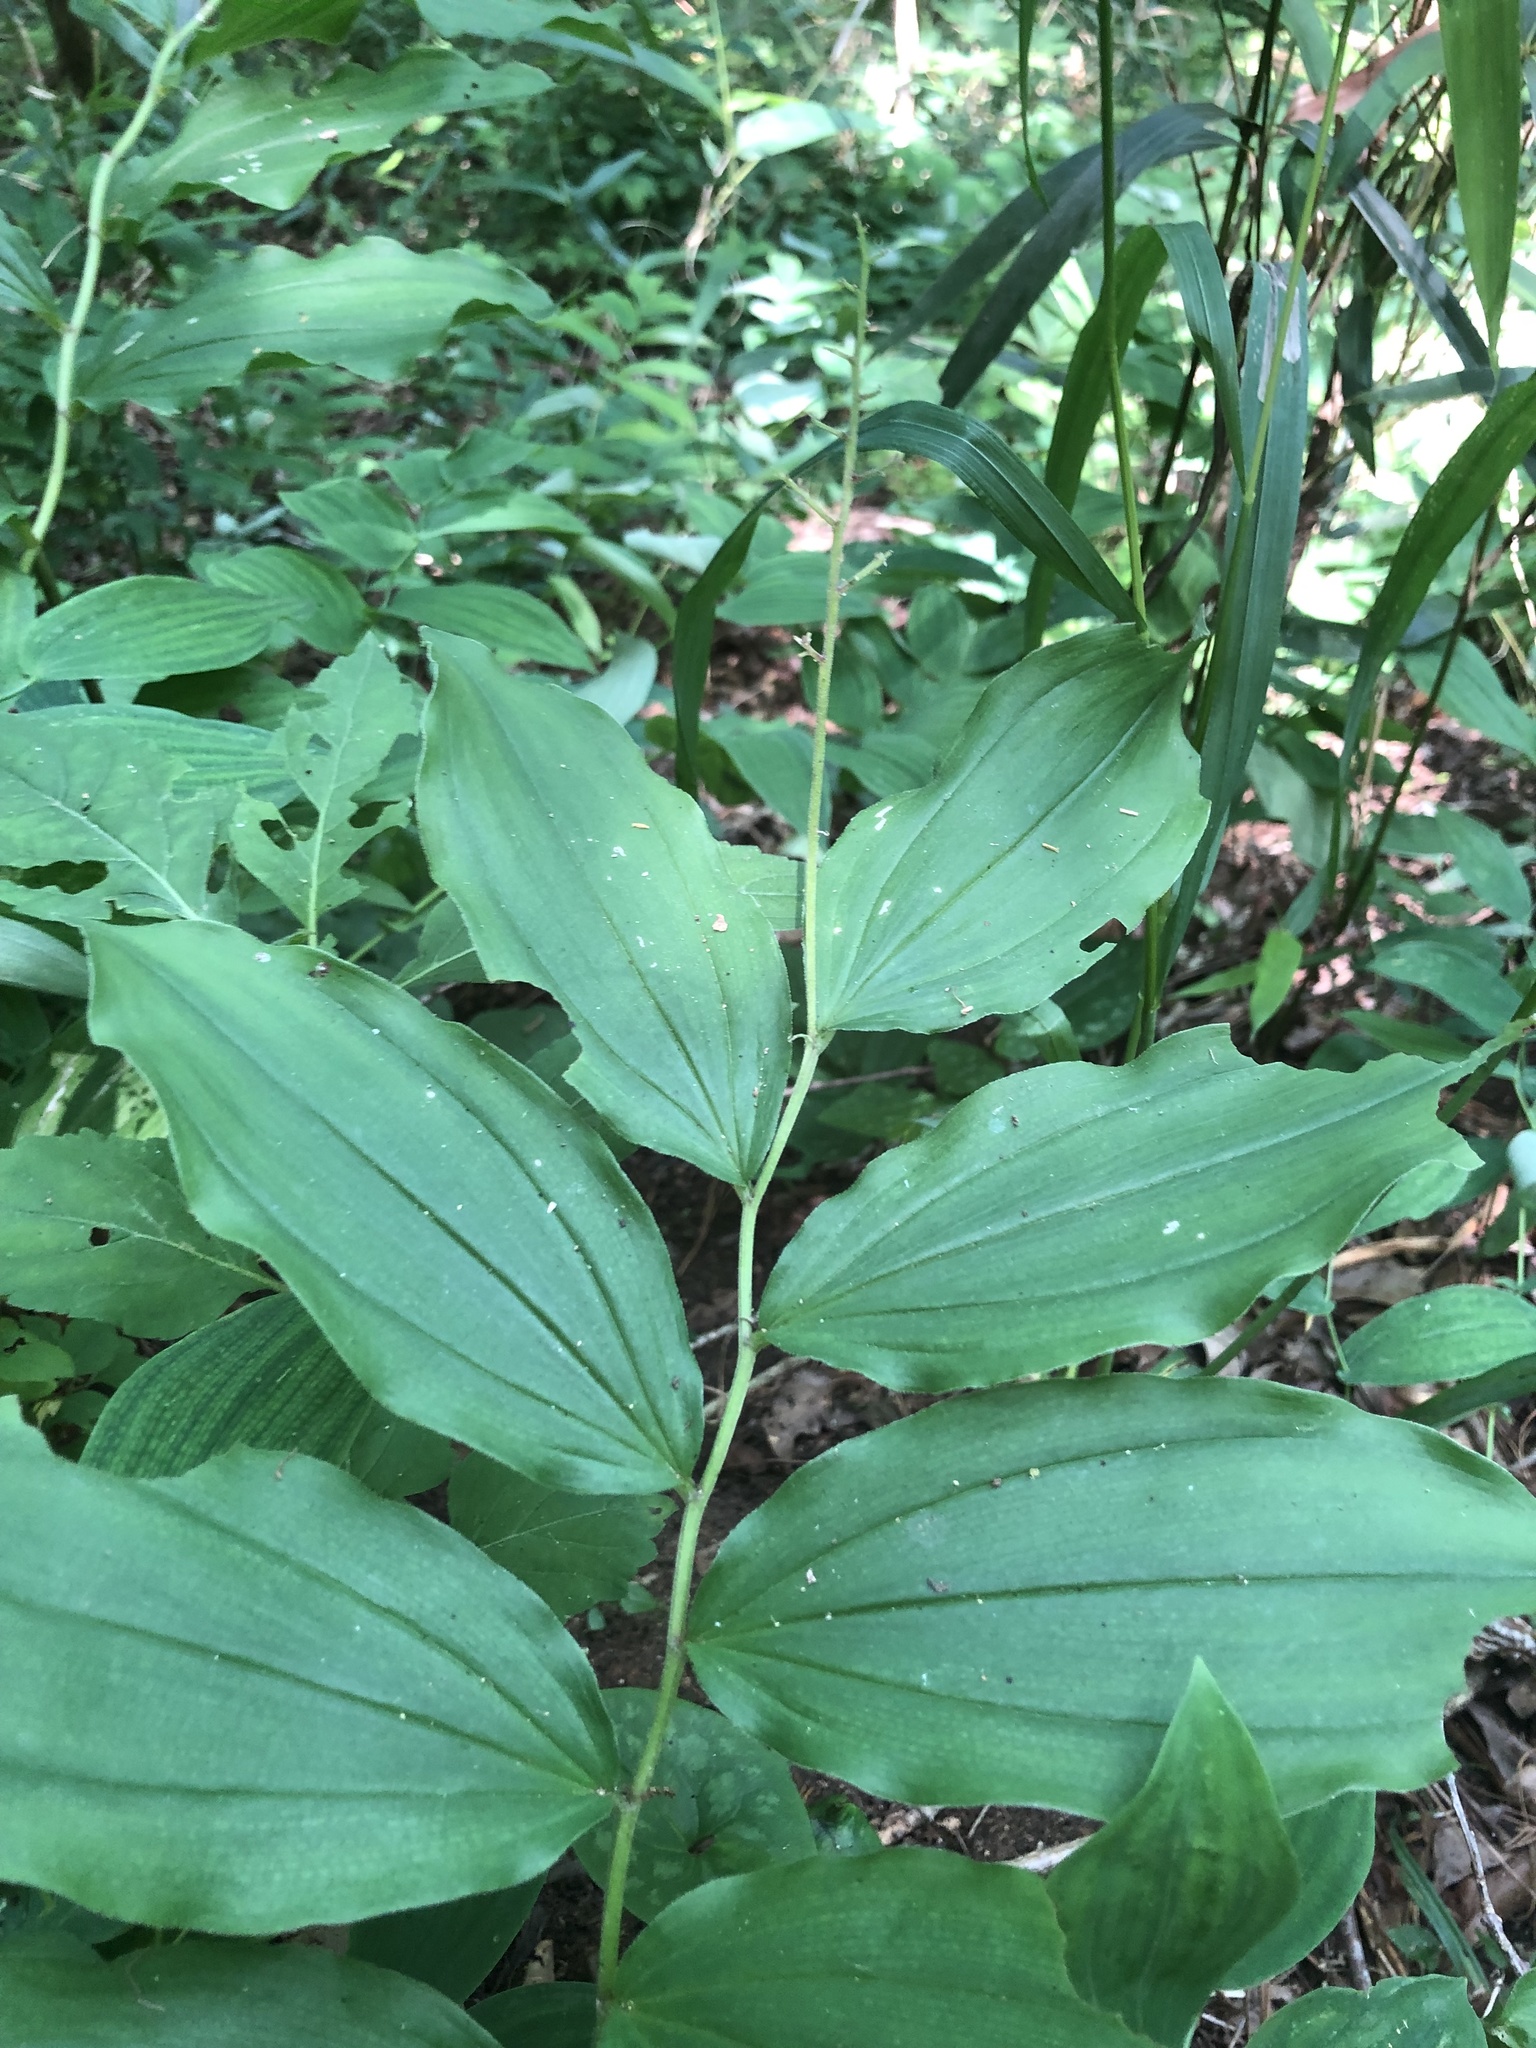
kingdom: Plantae
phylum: Tracheophyta
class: Liliopsida
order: Asparagales
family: Asparagaceae
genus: Maianthemum
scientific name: Maianthemum racemosum
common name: False spikenard
